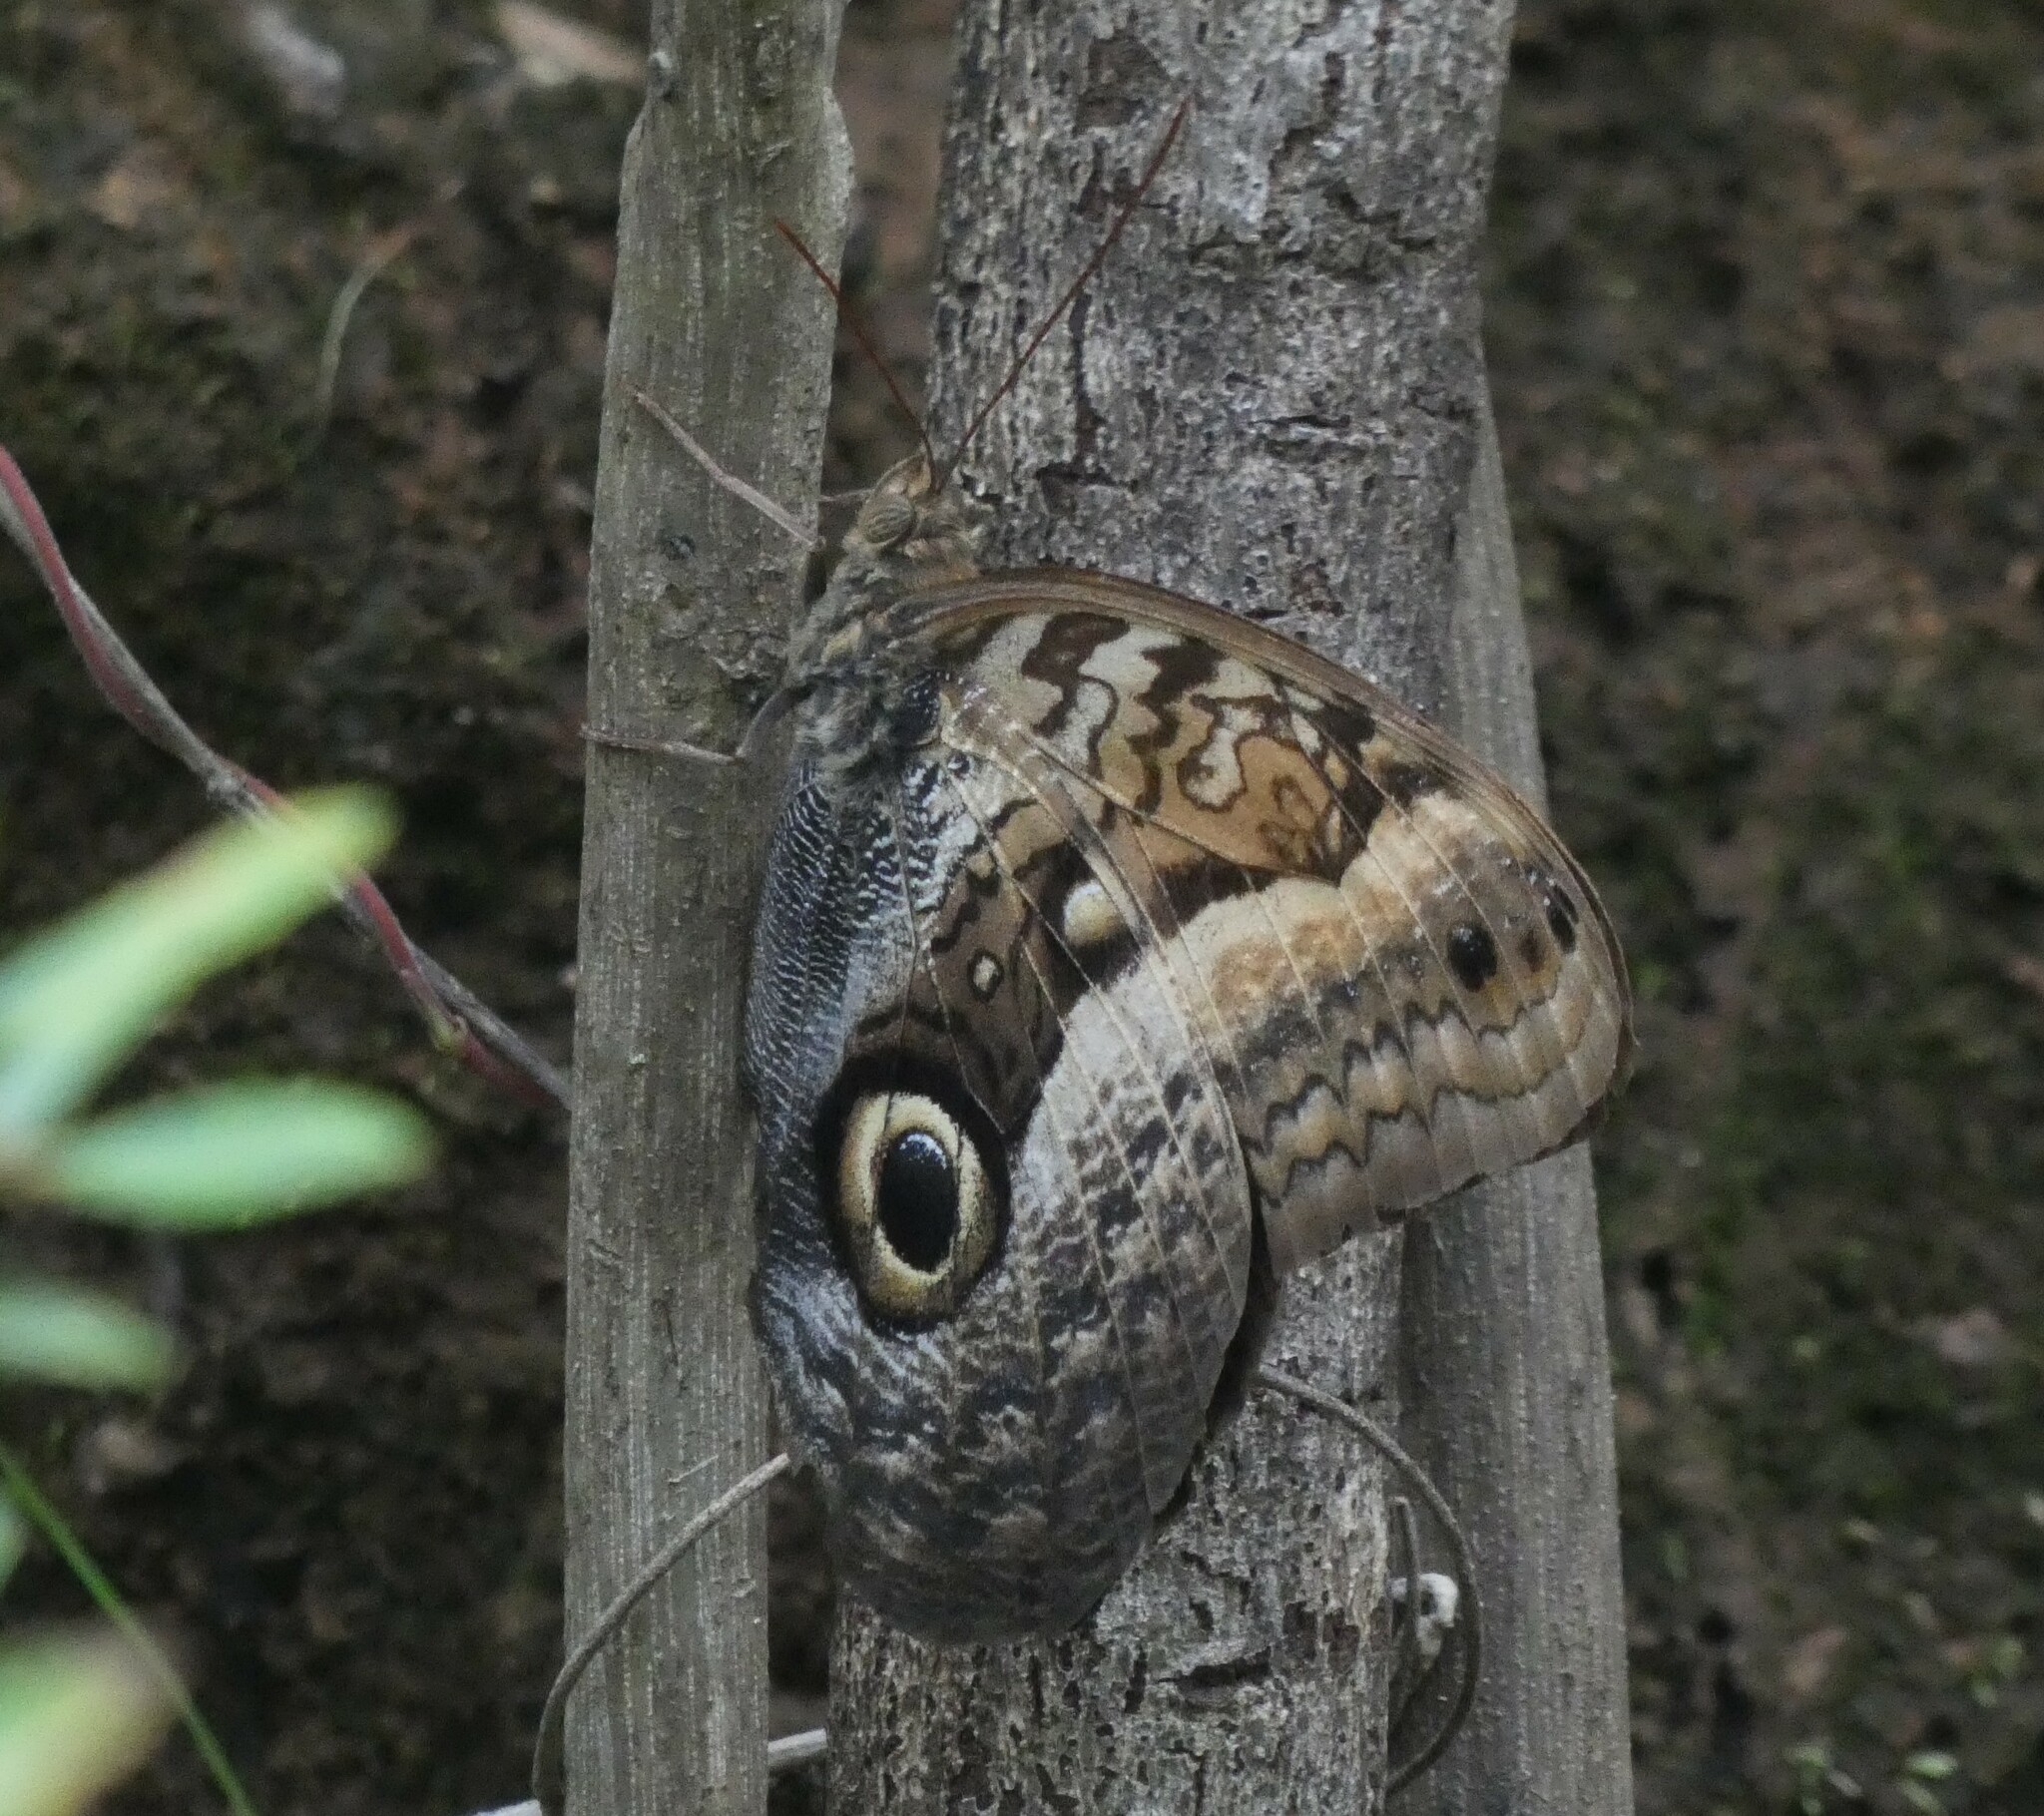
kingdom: Animalia
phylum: Arthropoda
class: Insecta
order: Lepidoptera
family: Nymphalidae
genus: Caligo
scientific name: Caligo arisbe
